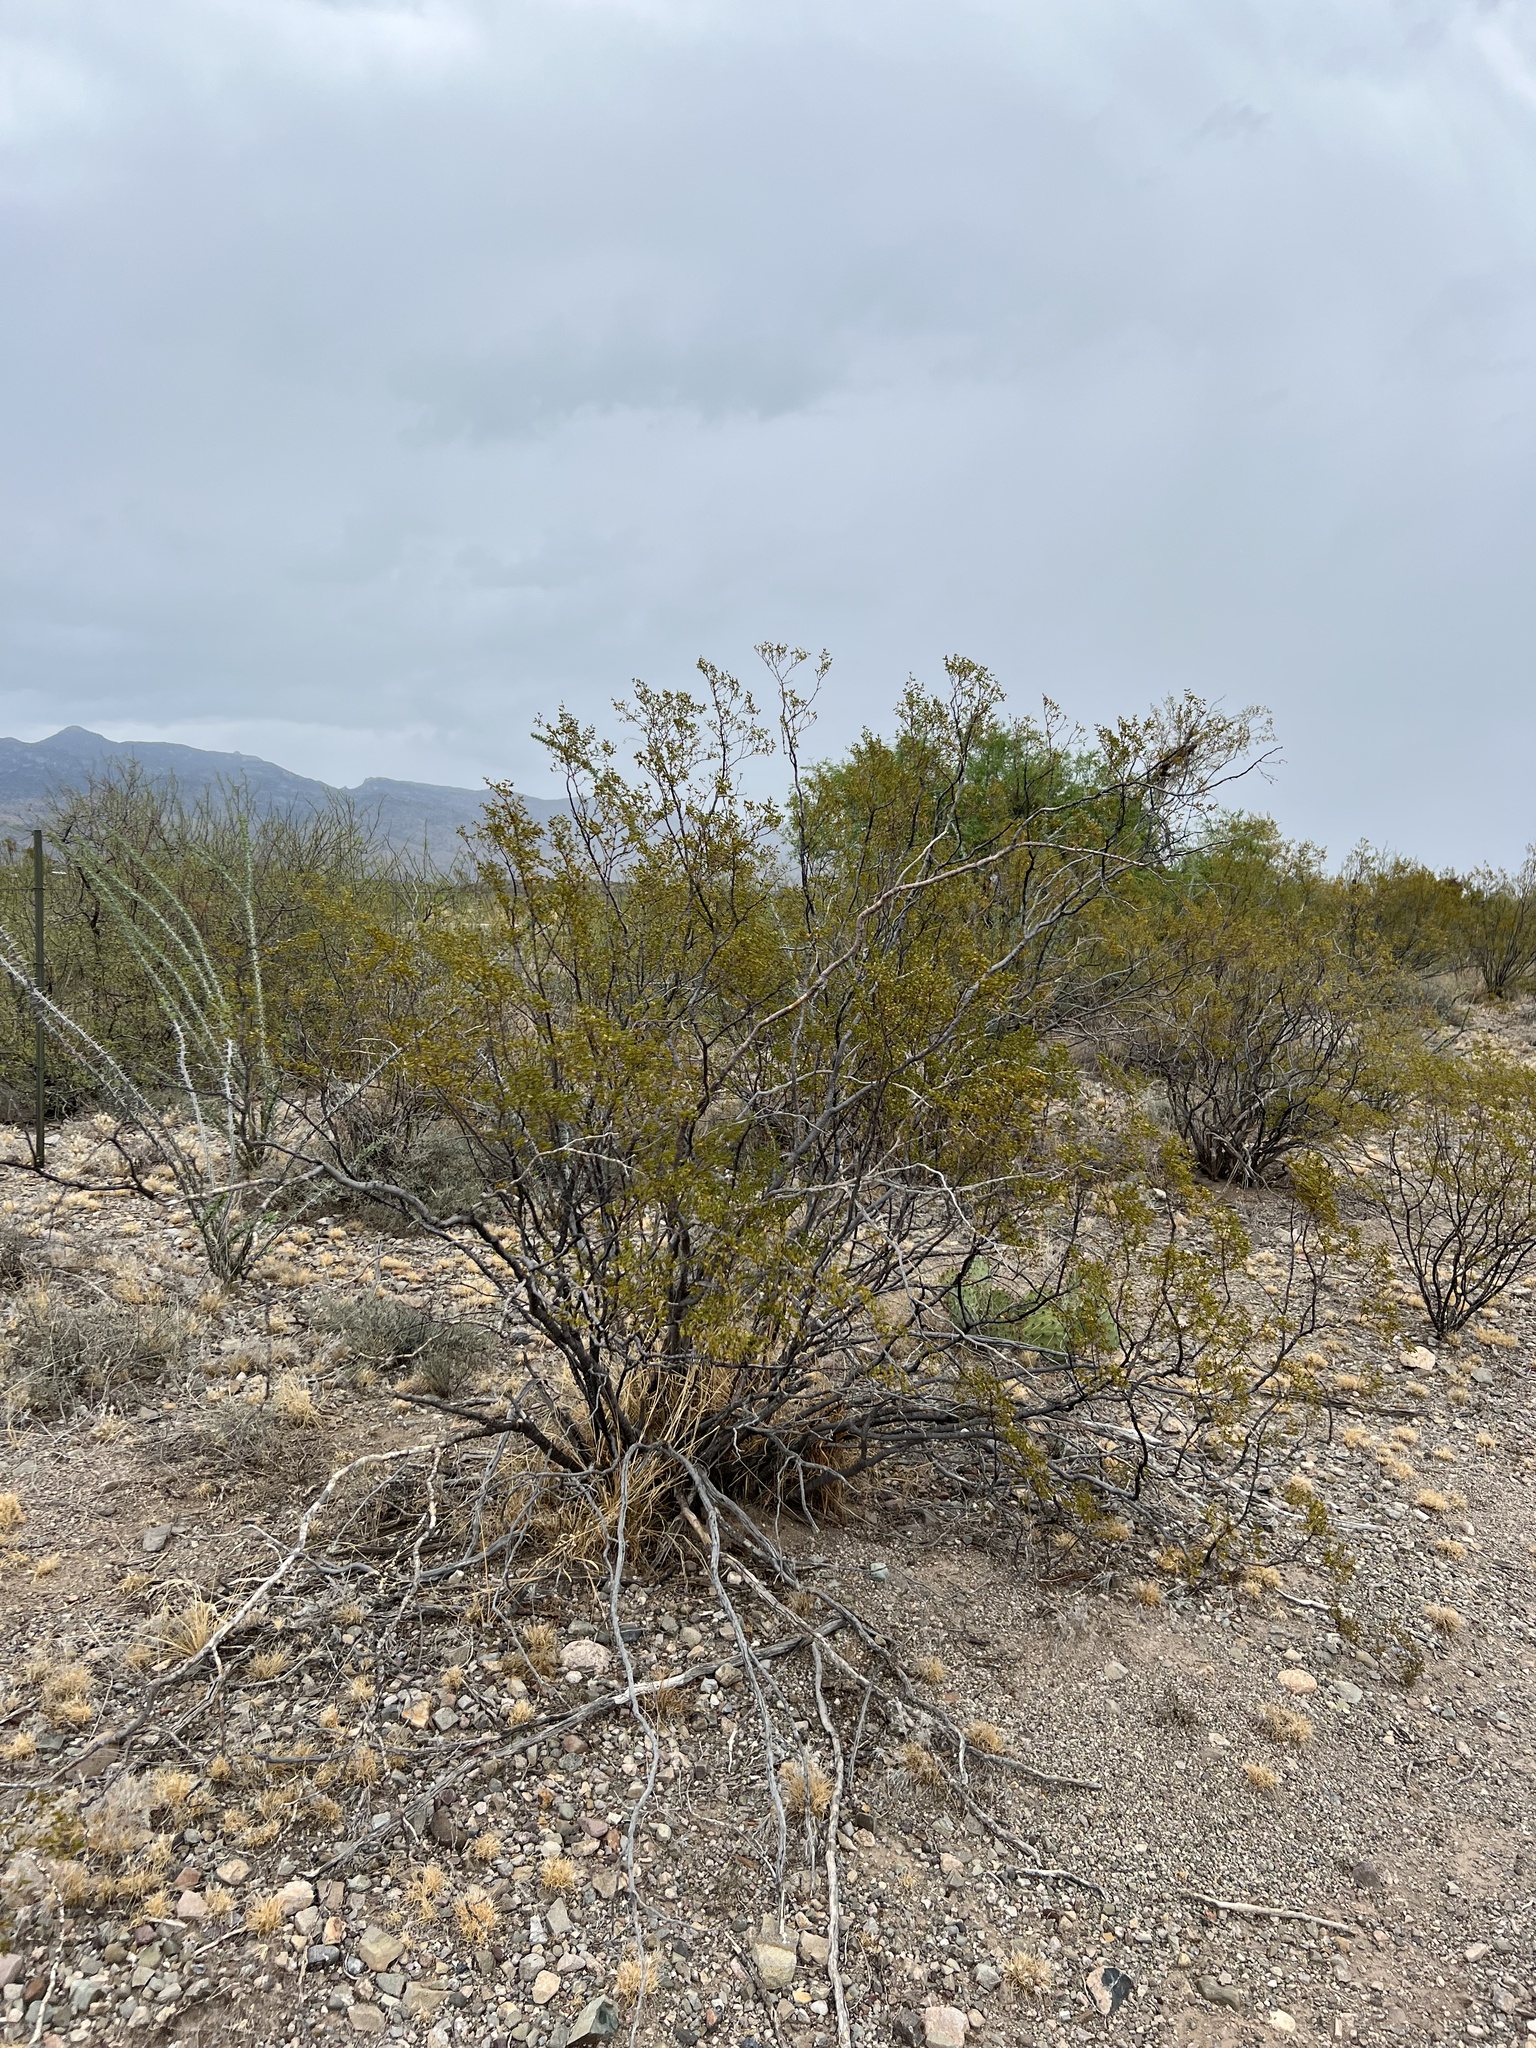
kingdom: Plantae
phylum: Tracheophyta
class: Magnoliopsida
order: Zygophyllales
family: Zygophyllaceae
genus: Larrea
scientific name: Larrea tridentata
